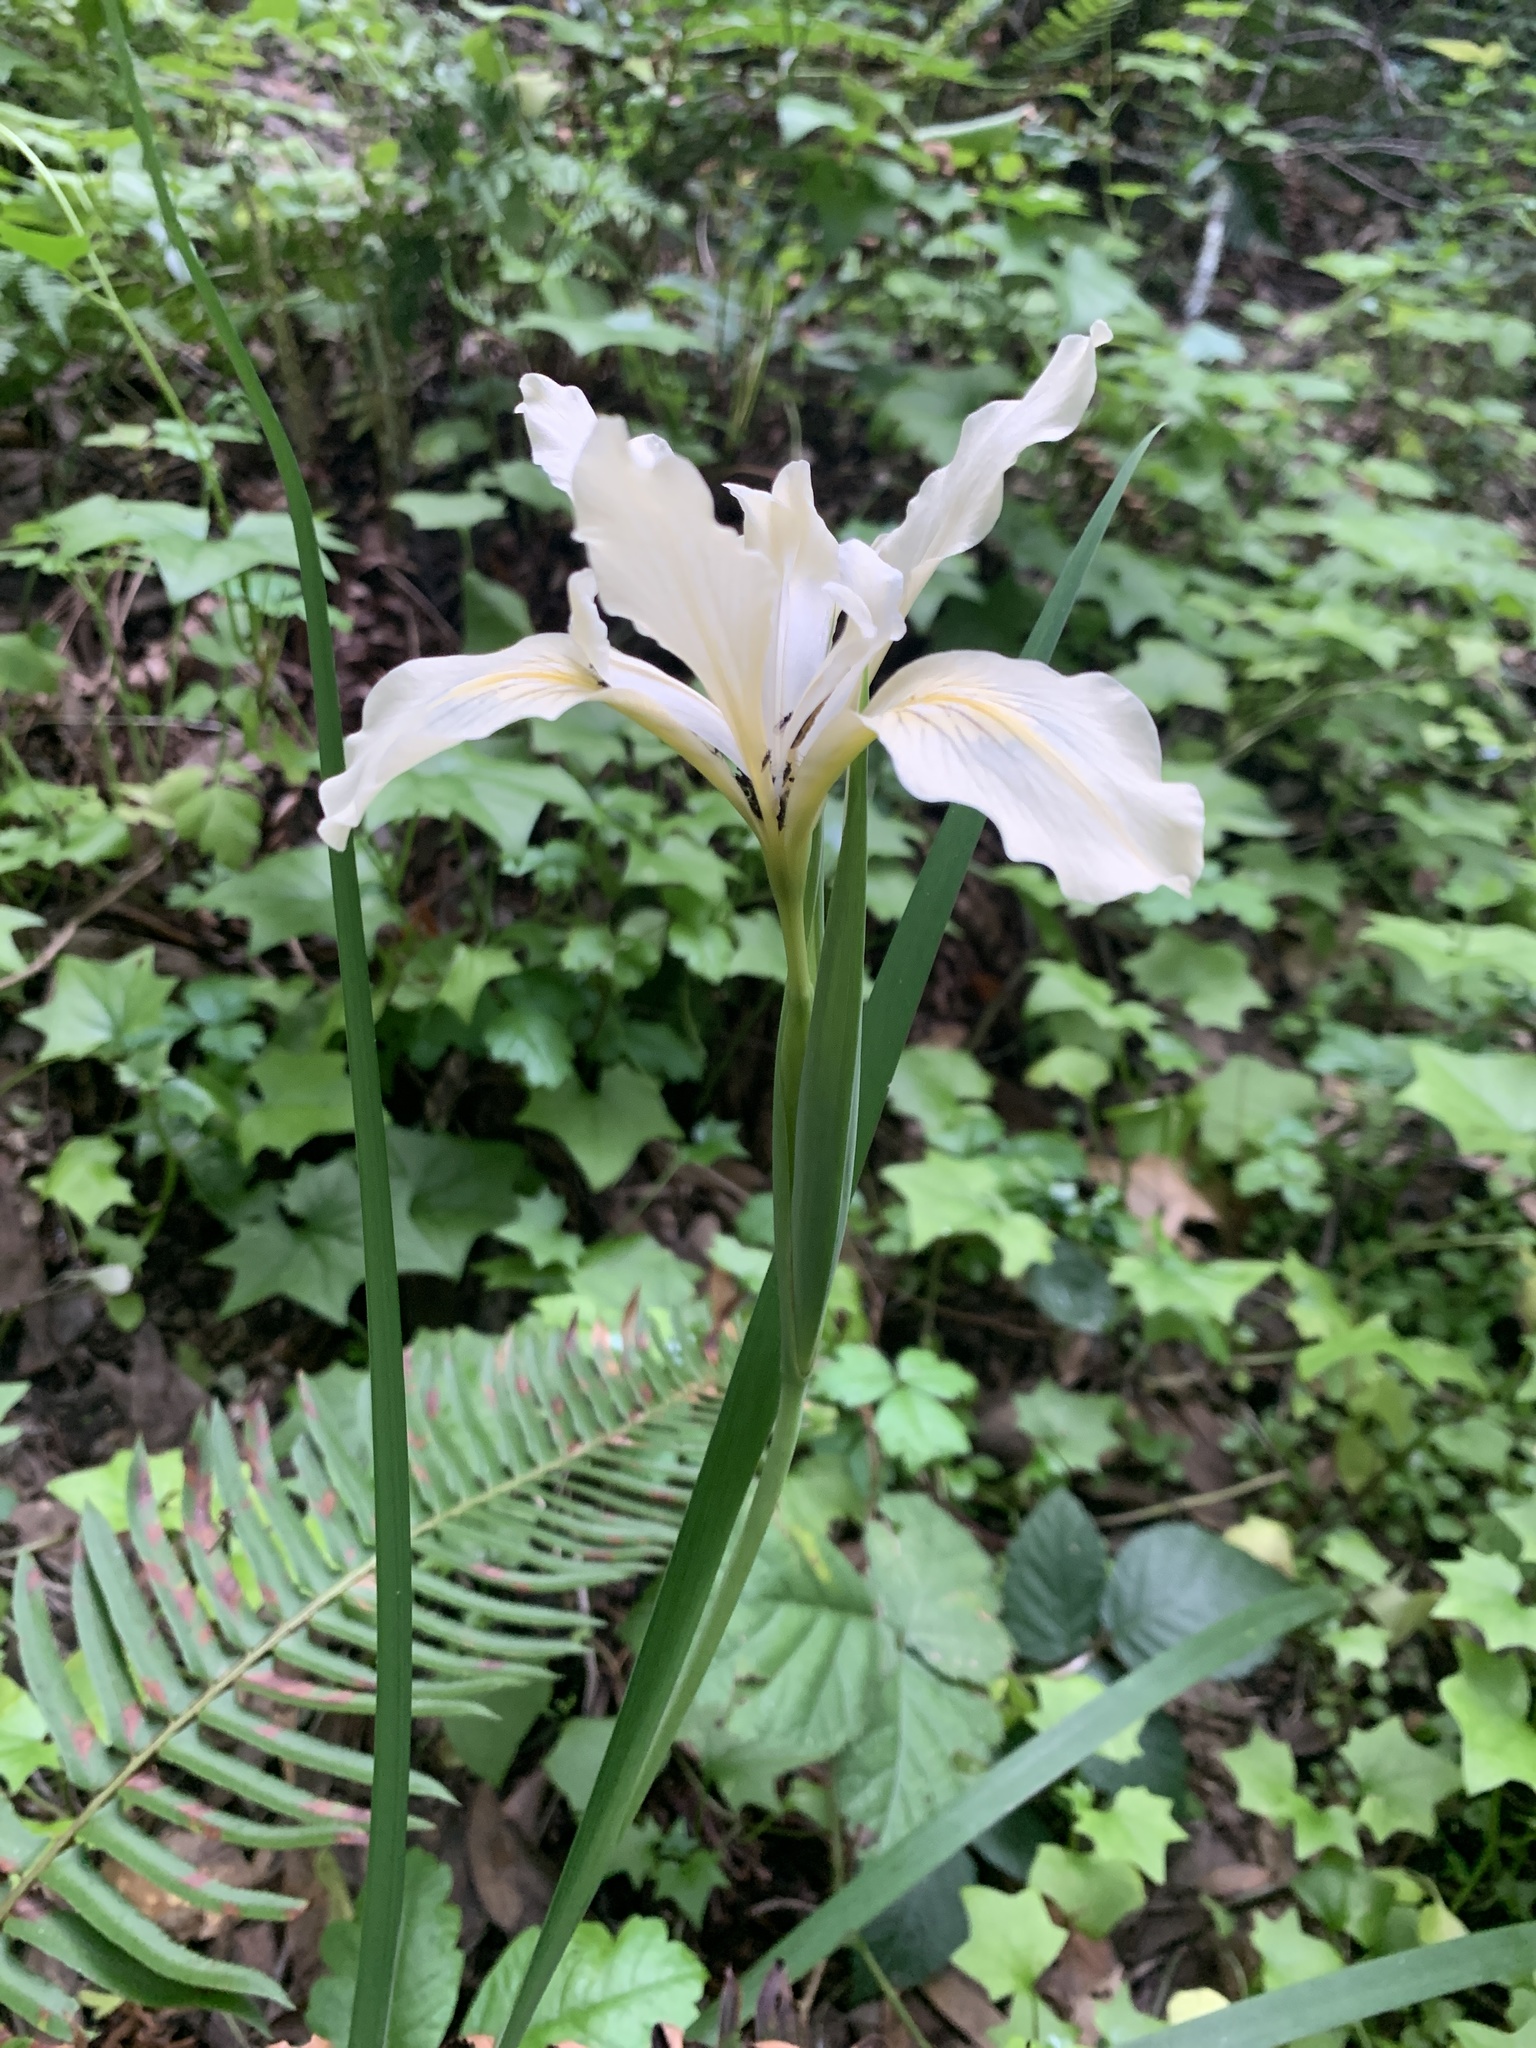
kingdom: Plantae
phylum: Tracheophyta
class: Liliopsida
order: Asparagales
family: Iridaceae
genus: Iris
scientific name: Iris douglasiana
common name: Marin iris
